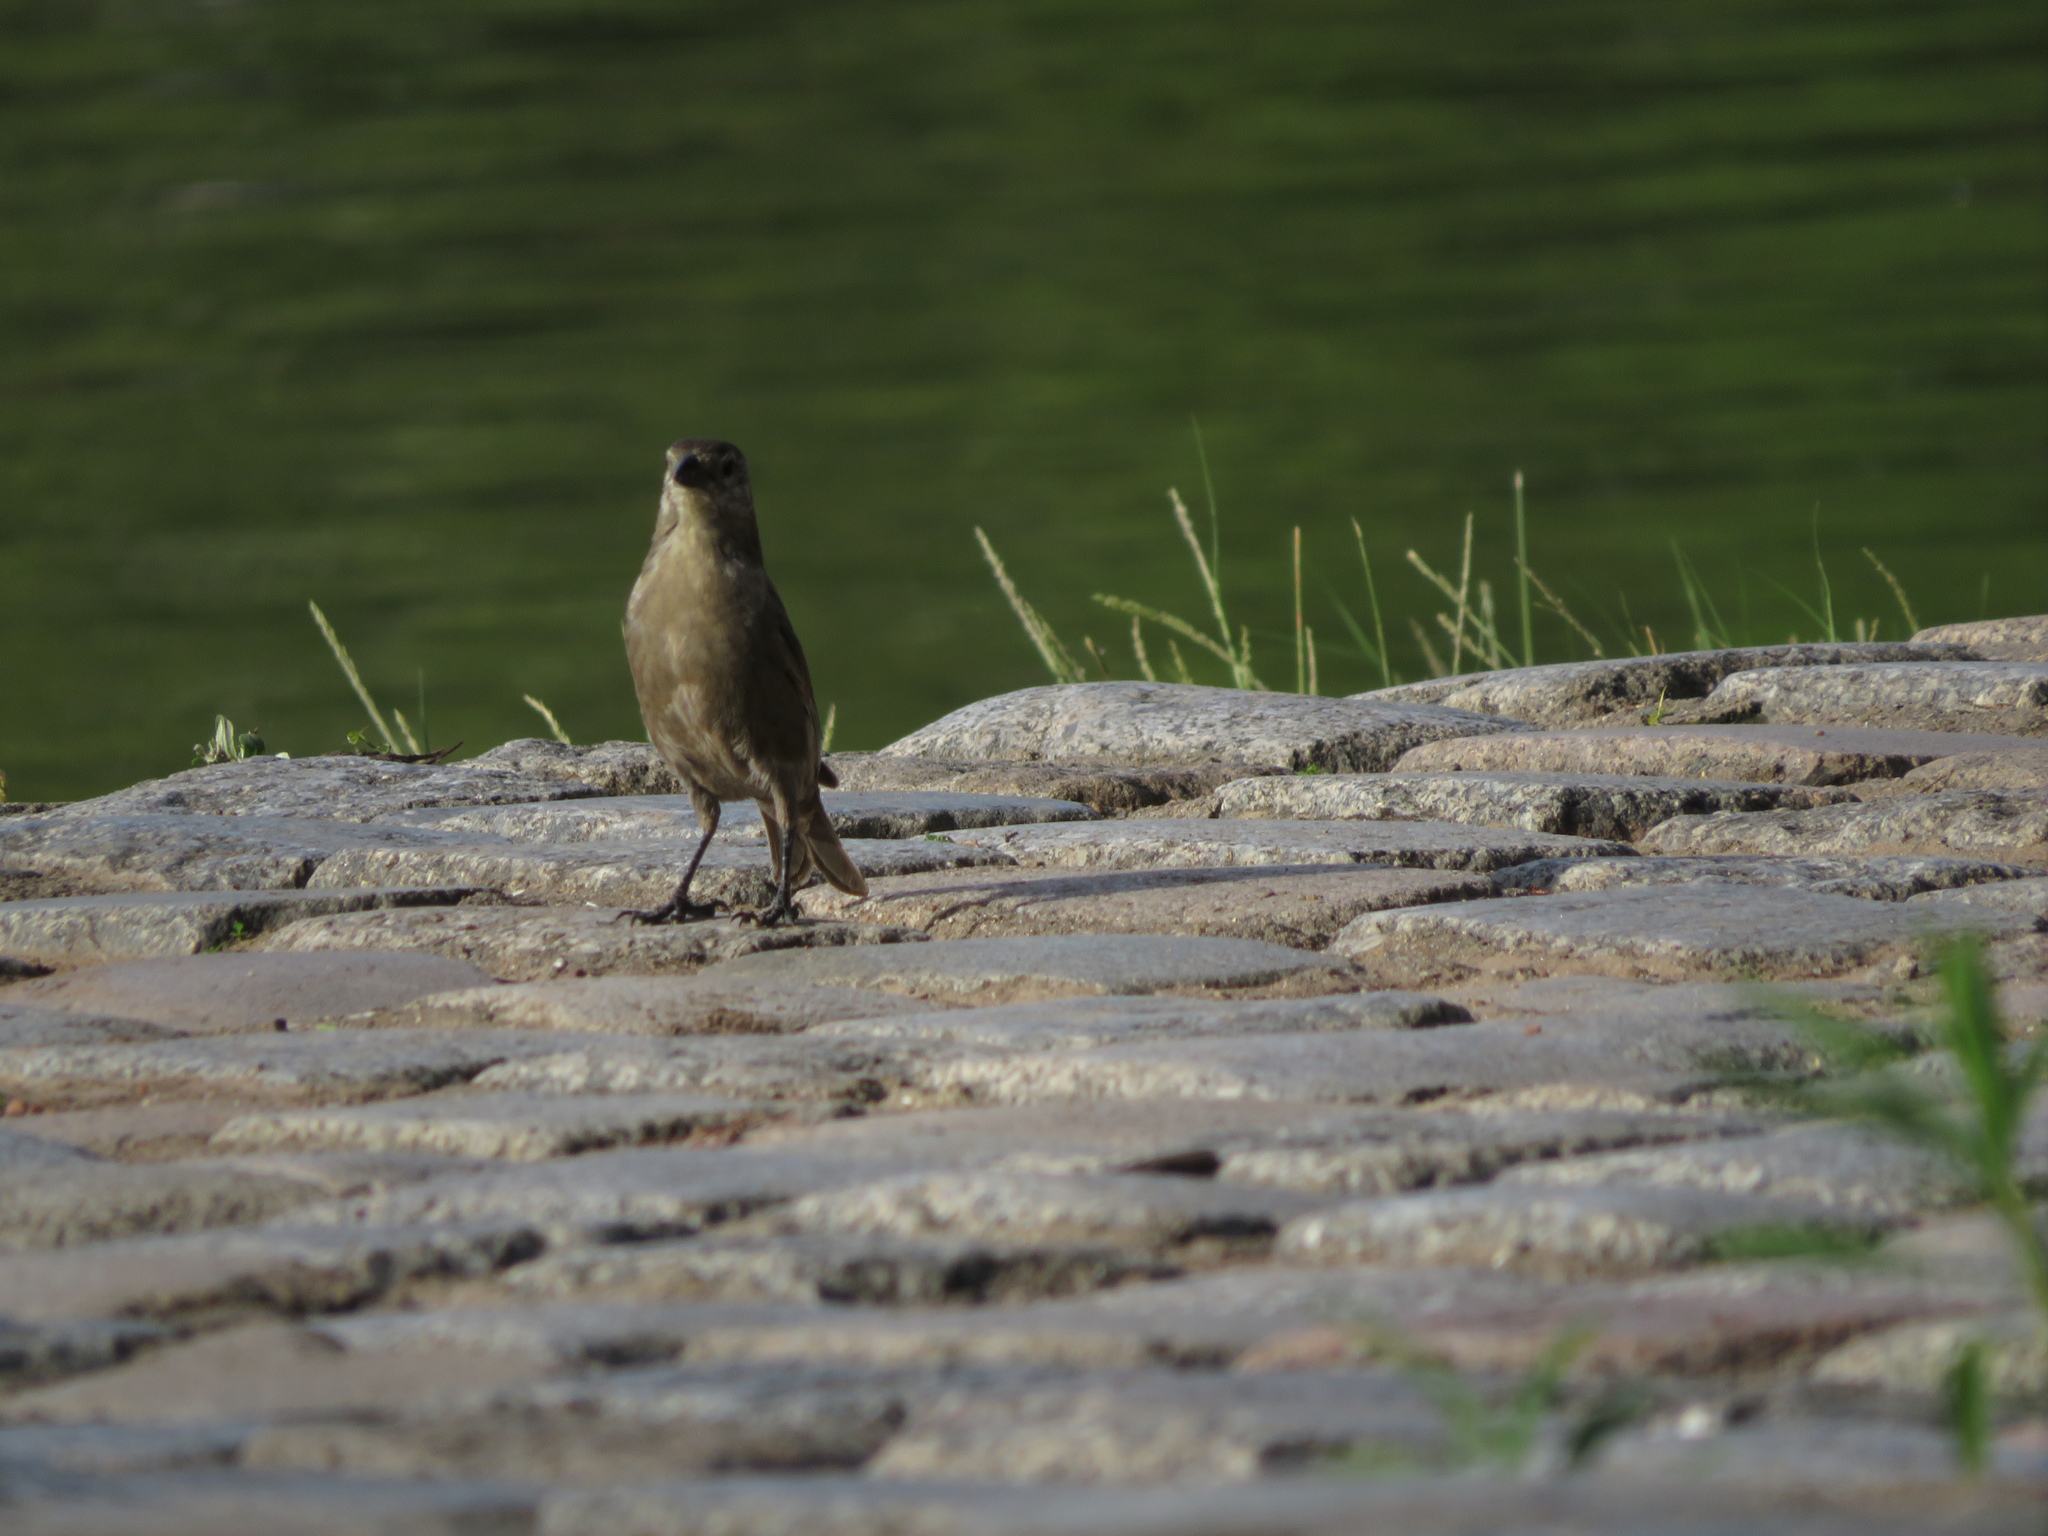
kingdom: Animalia
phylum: Chordata
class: Aves
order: Passeriformes
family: Icteridae
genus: Molothrus
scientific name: Molothrus bonariensis
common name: Shiny cowbird
